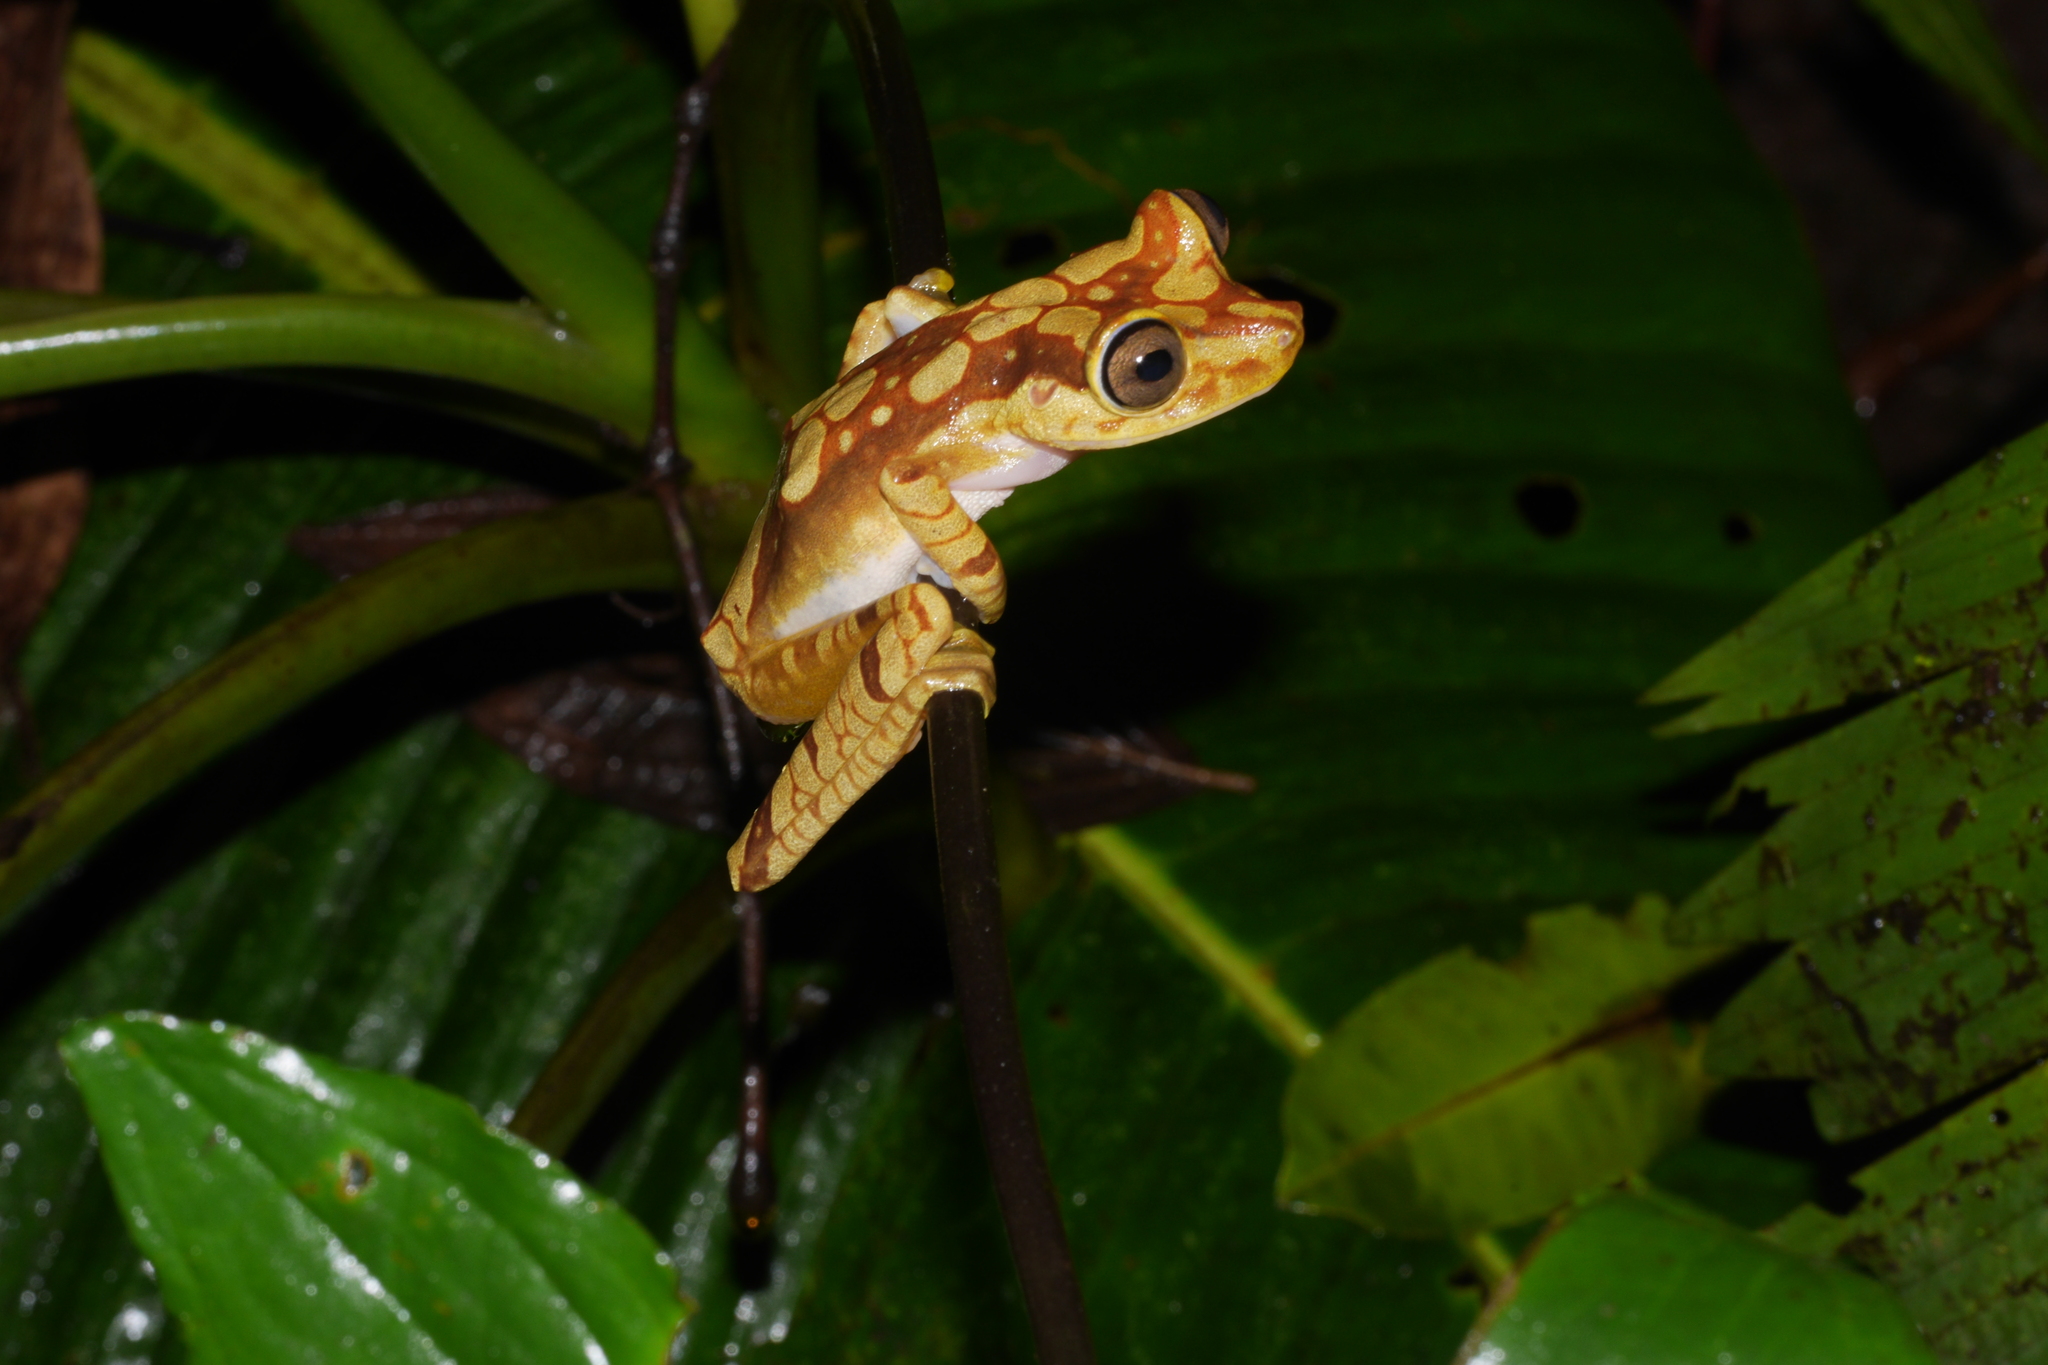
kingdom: Animalia
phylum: Chordata
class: Amphibia
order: Anura
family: Hylidae
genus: Boana
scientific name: Boana picturata
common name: Imbabura treefrog
